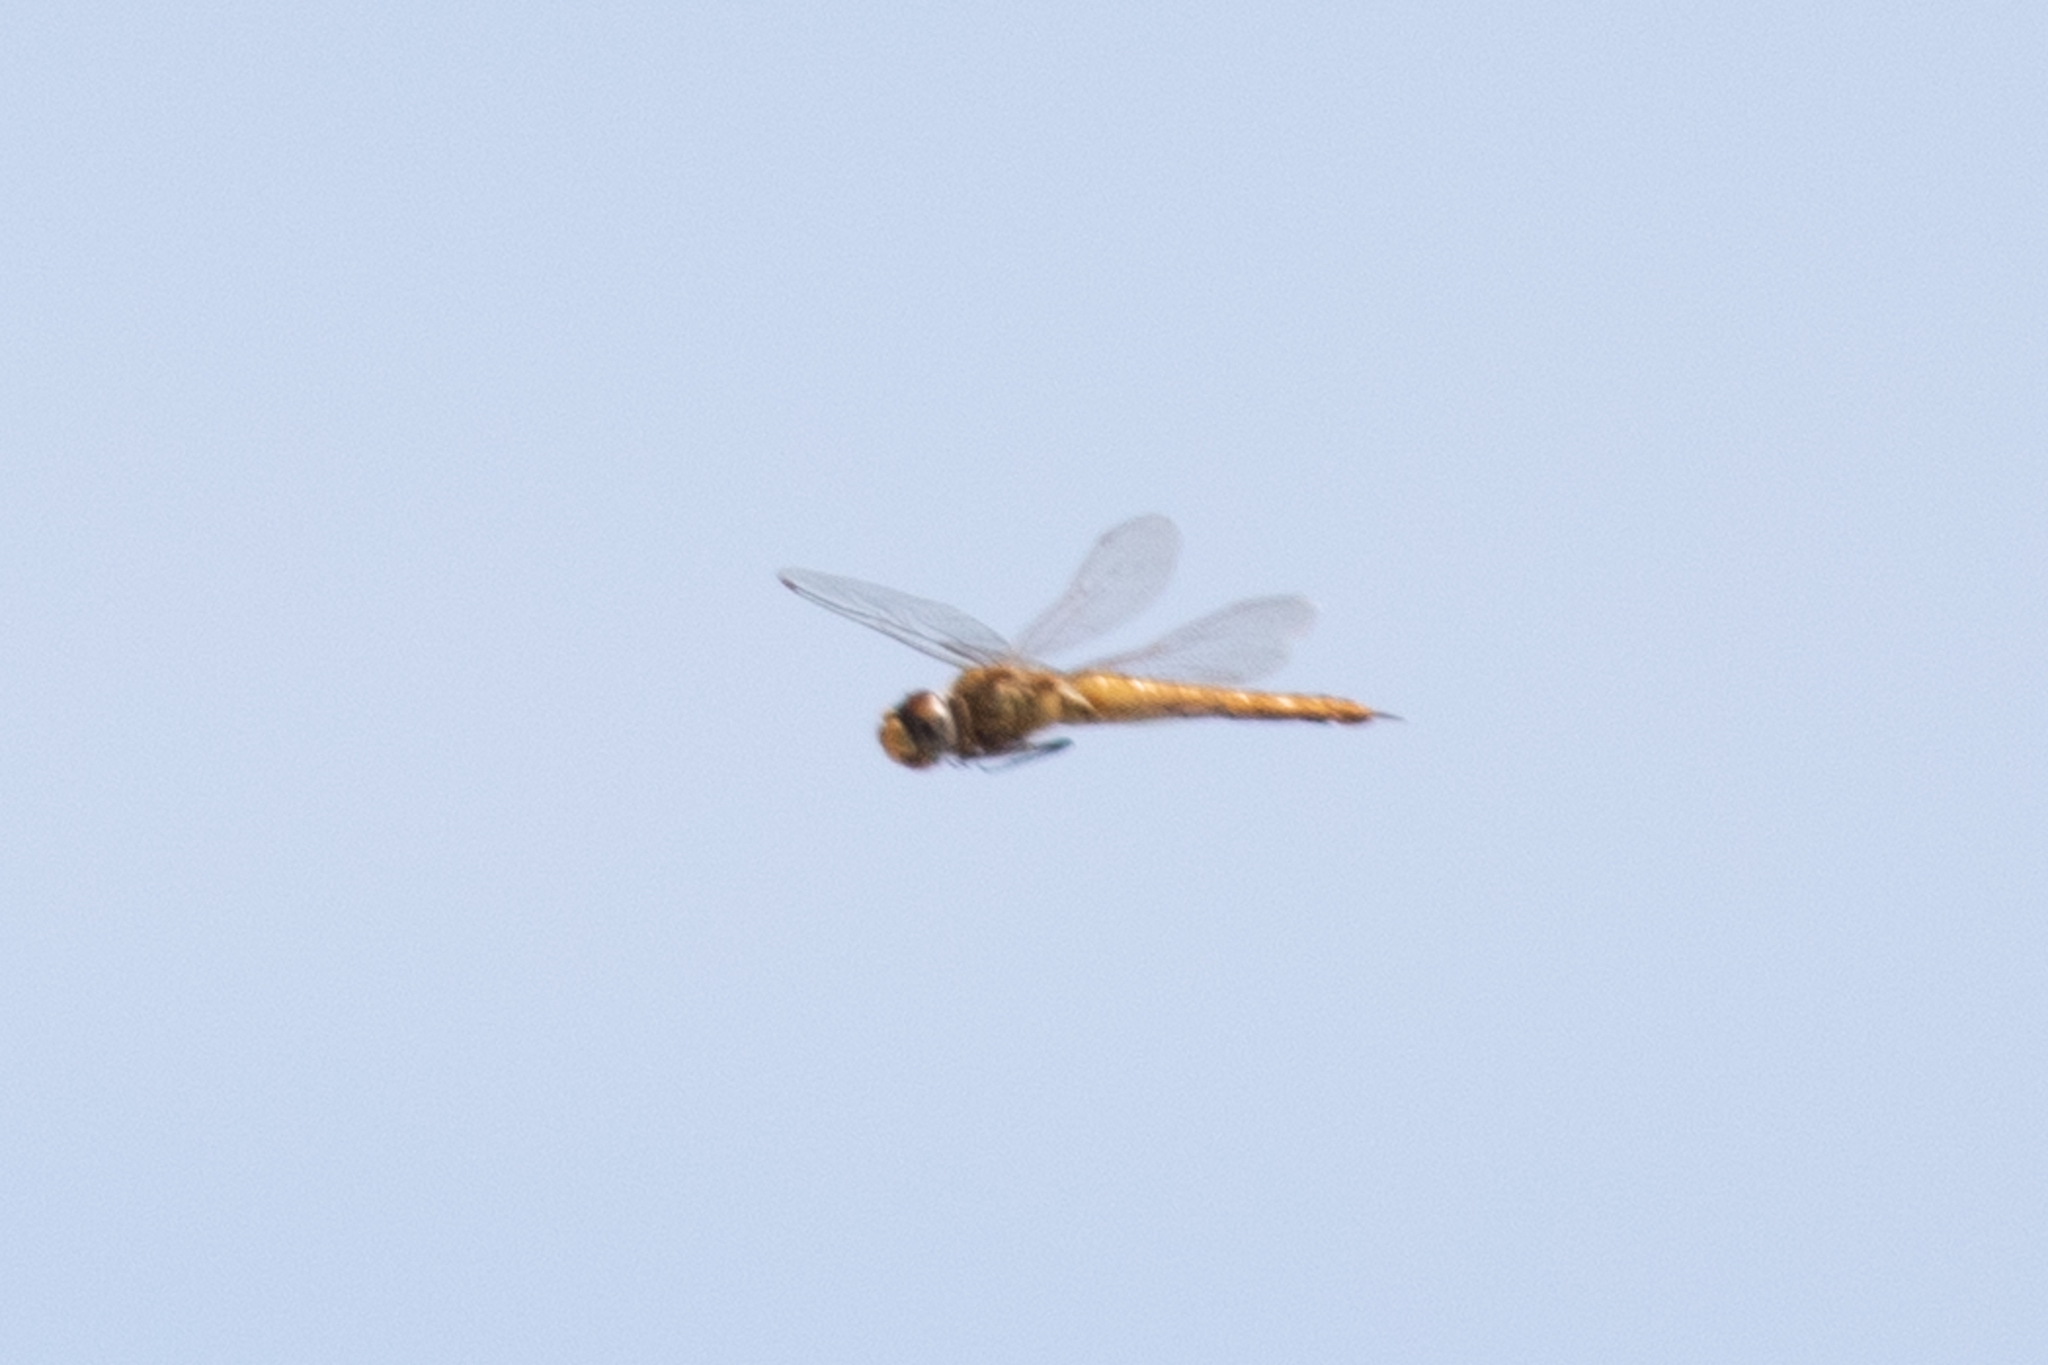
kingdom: Animalia
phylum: Arthropoda
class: Insecta
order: Odonata
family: Libellulidae
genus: Pantala
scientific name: Pantala flavescens
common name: Wandering glider
